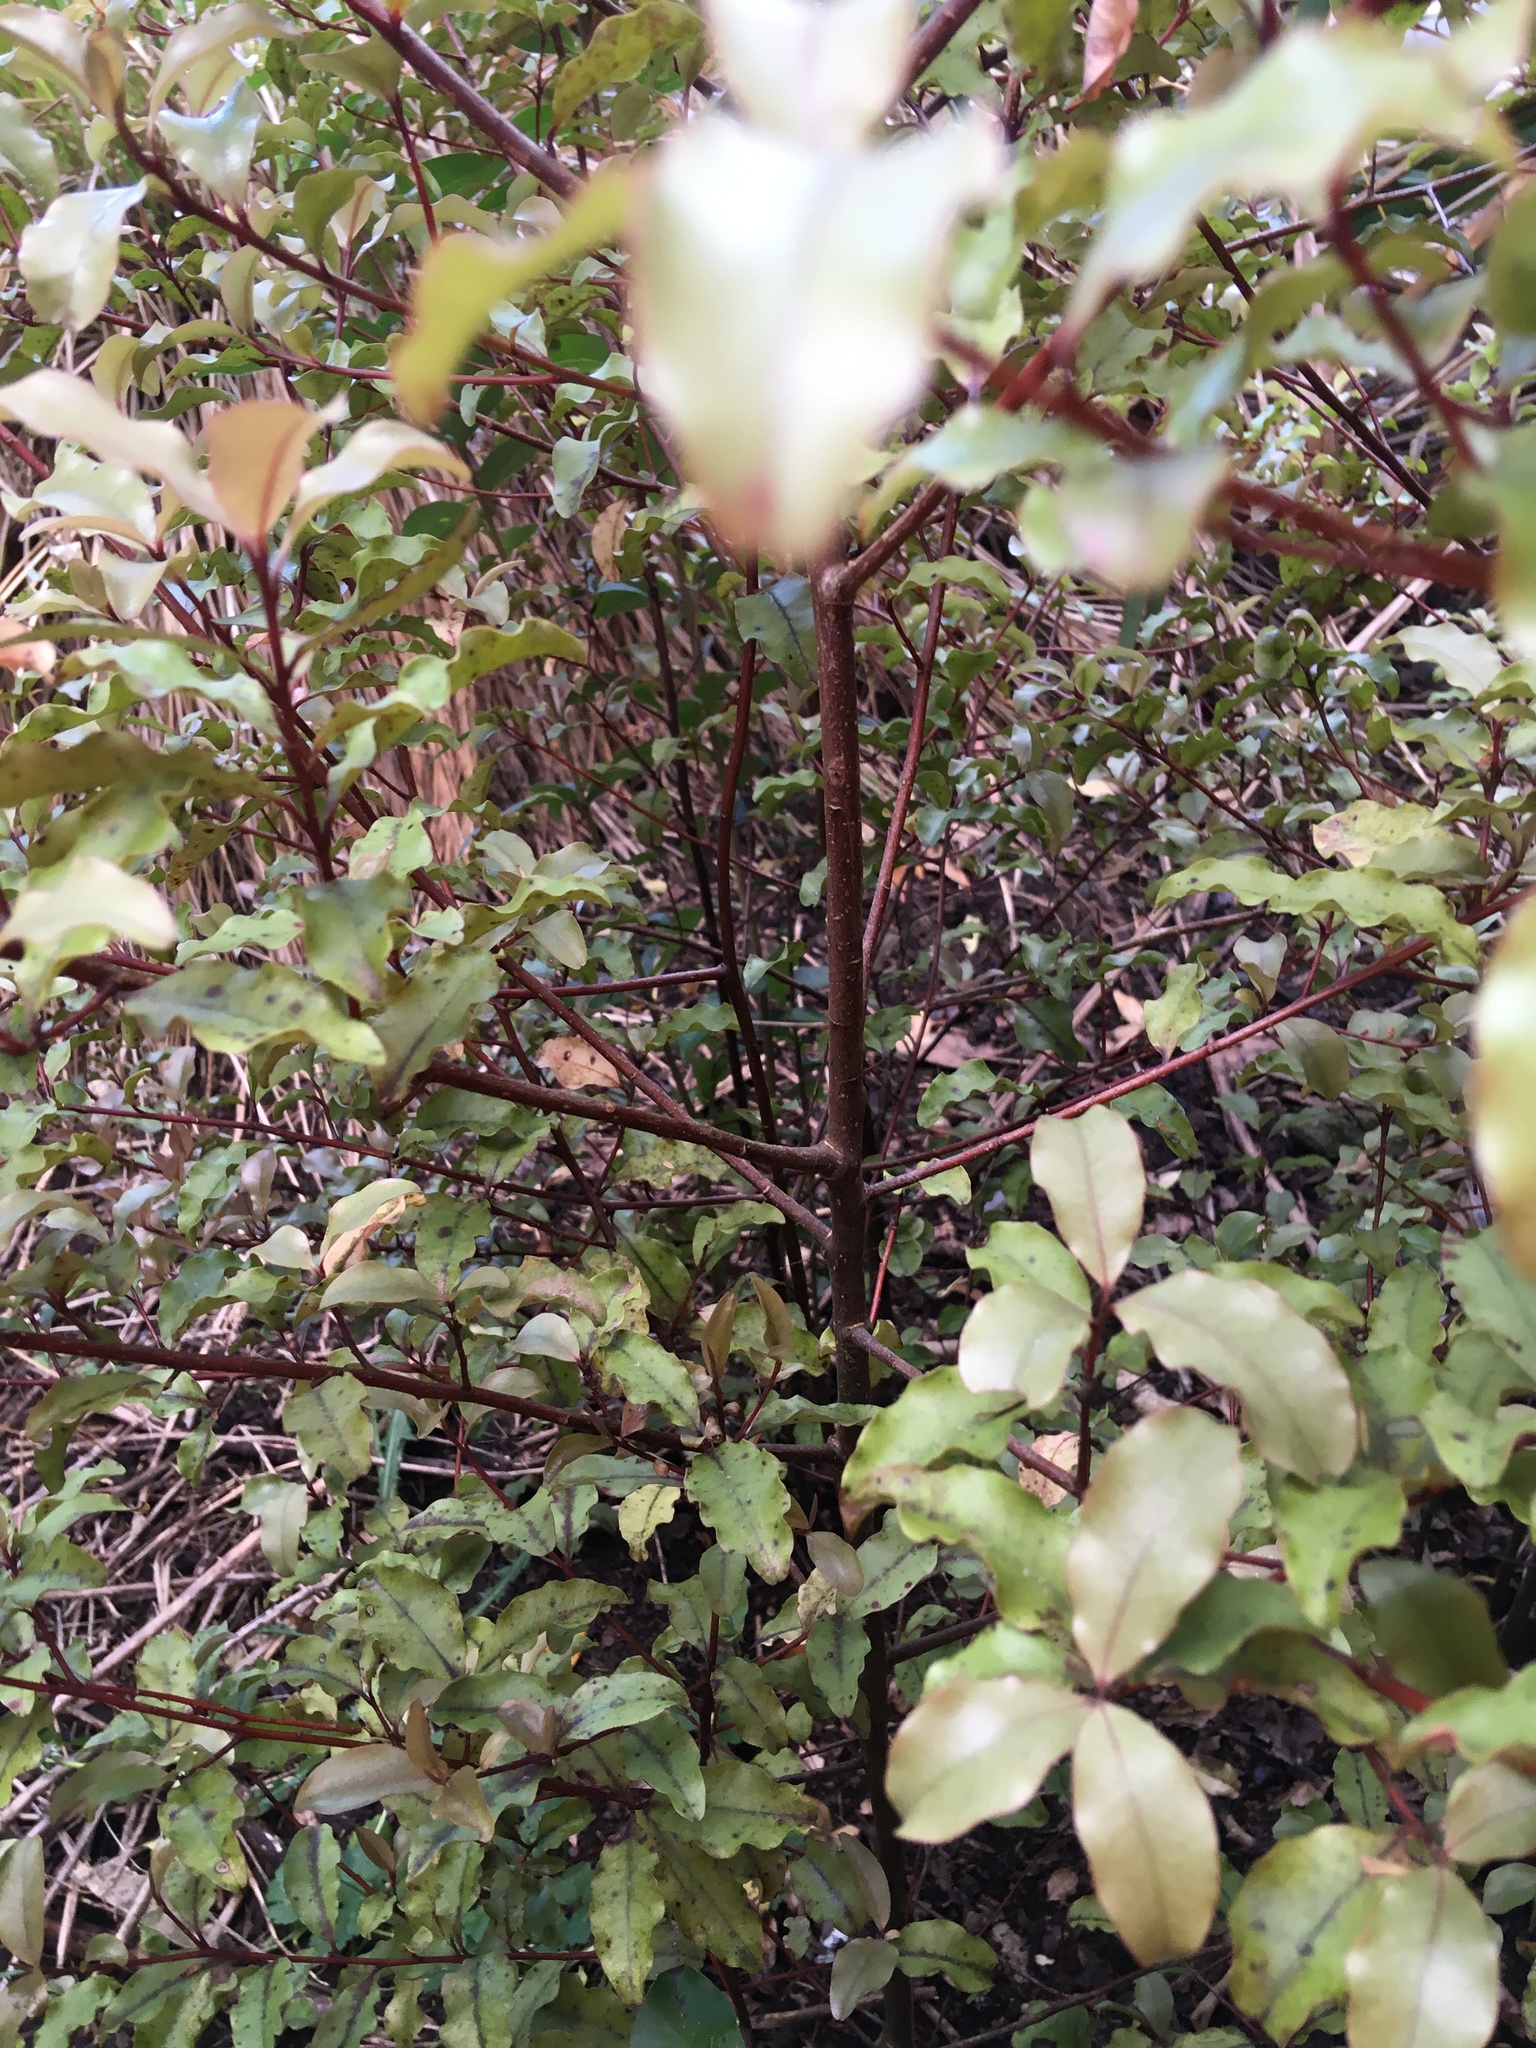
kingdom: Plantae
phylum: Tracheophyta
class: Magnoliopsida
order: Ericales
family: Primulaceae
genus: Myrsine
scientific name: Myrsine australis
